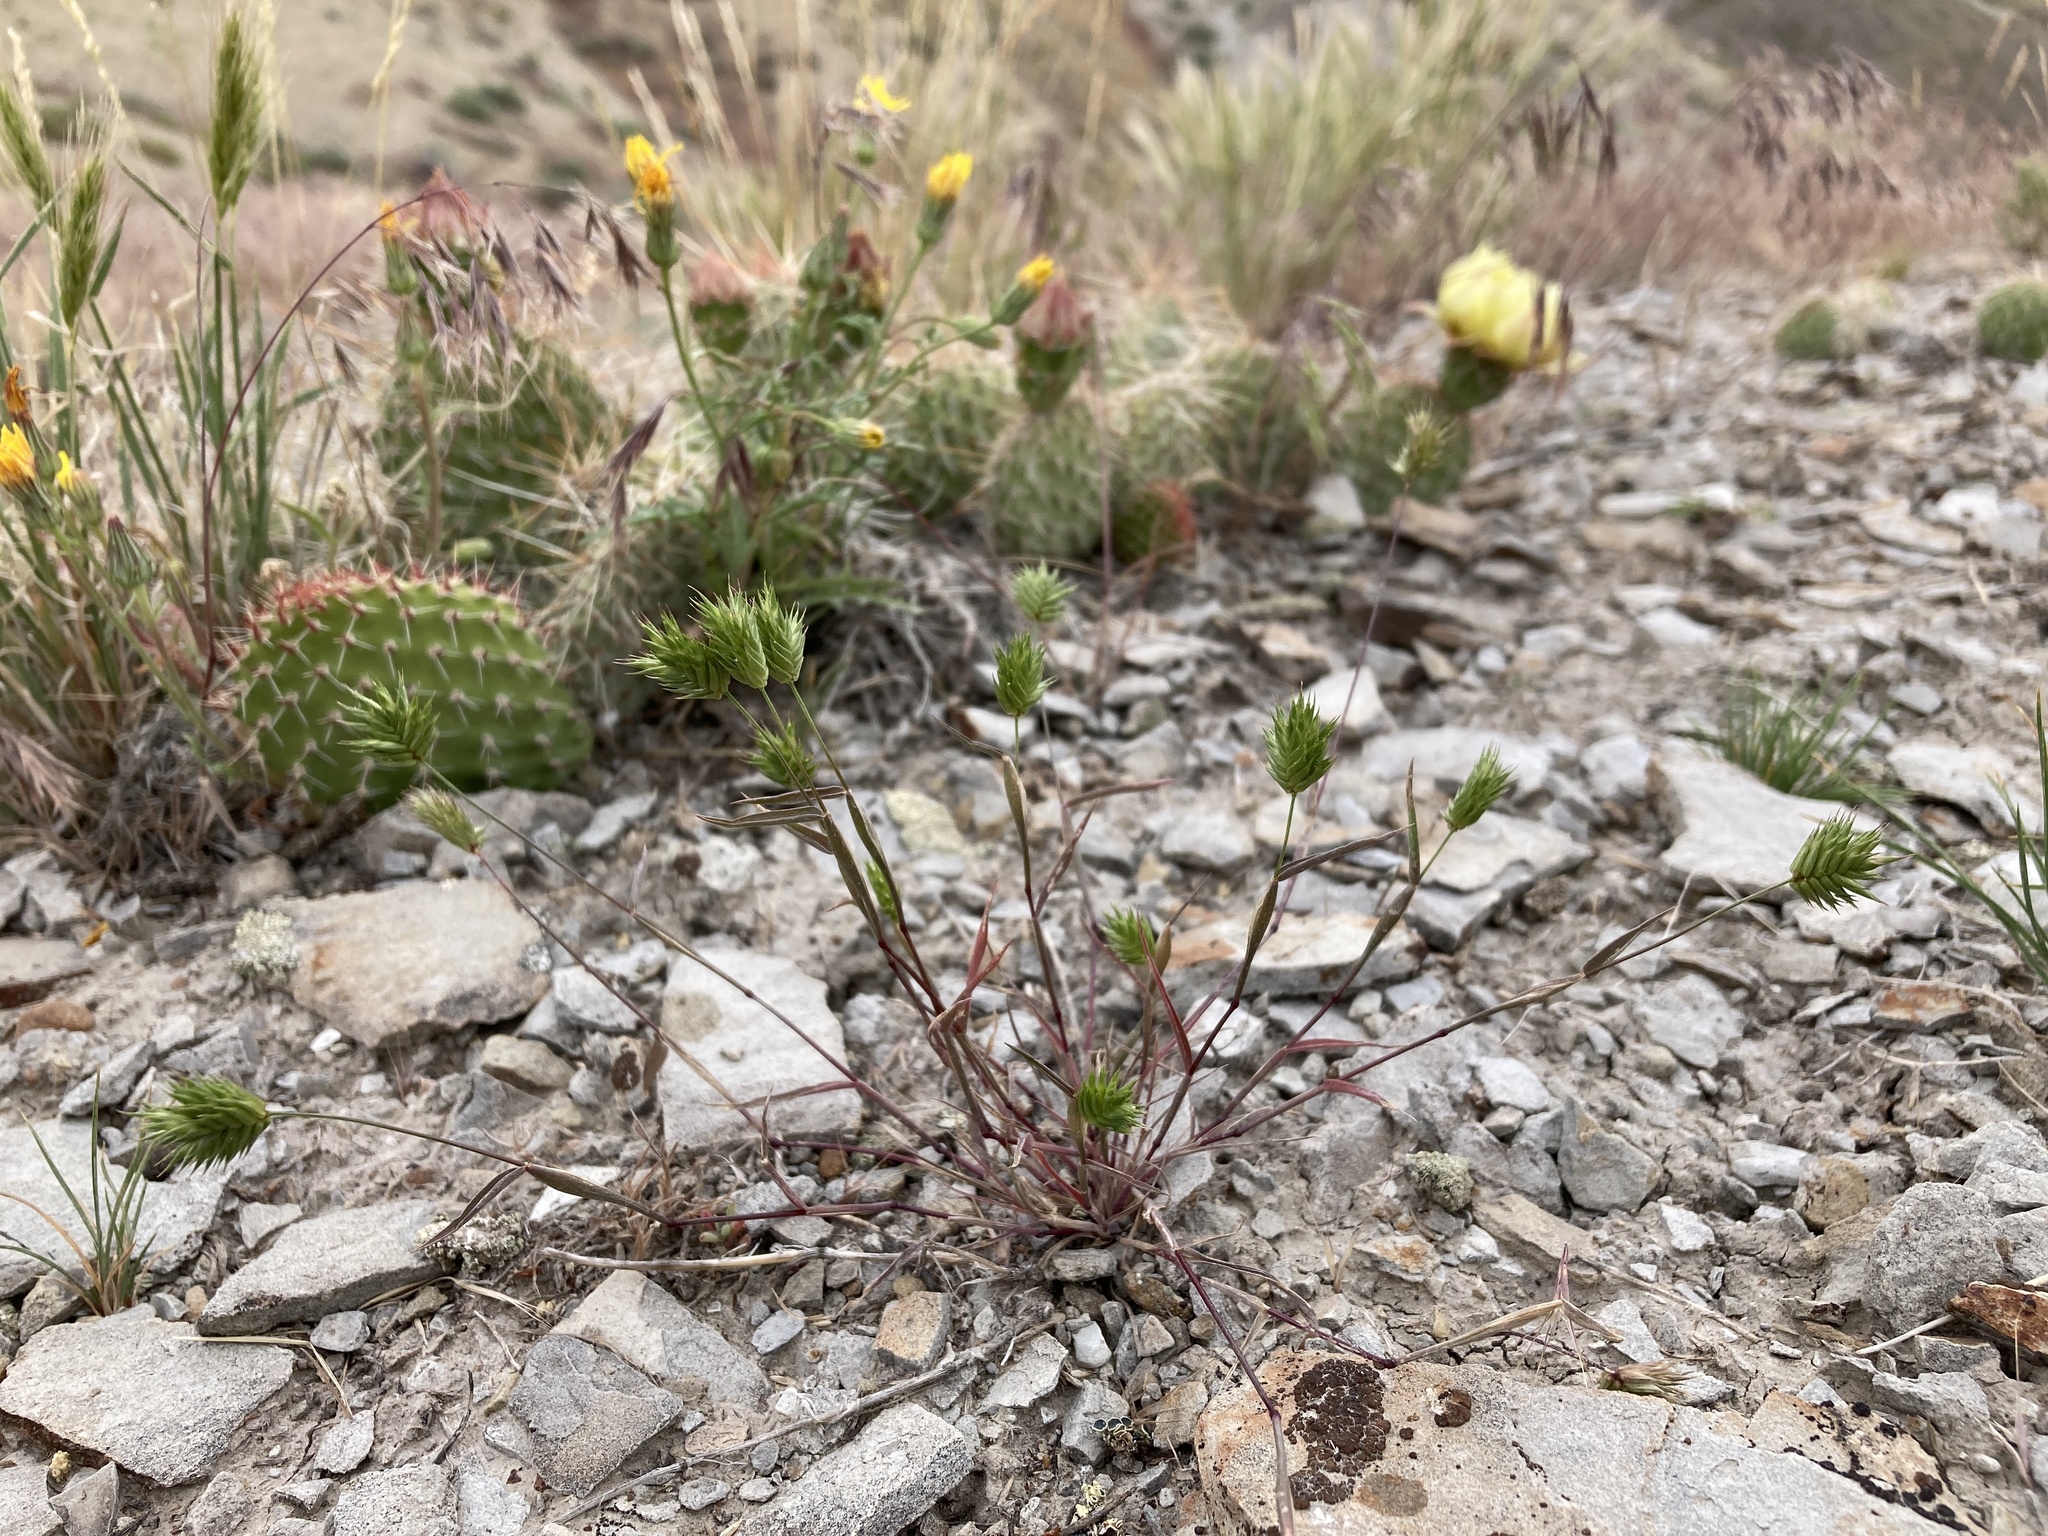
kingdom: Plantae
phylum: Tracheophyta
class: Liliopsida
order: Poales
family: Poaceae
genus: Eremopyrum
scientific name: Eremopyrum triticeum
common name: Annual wheatgrass
